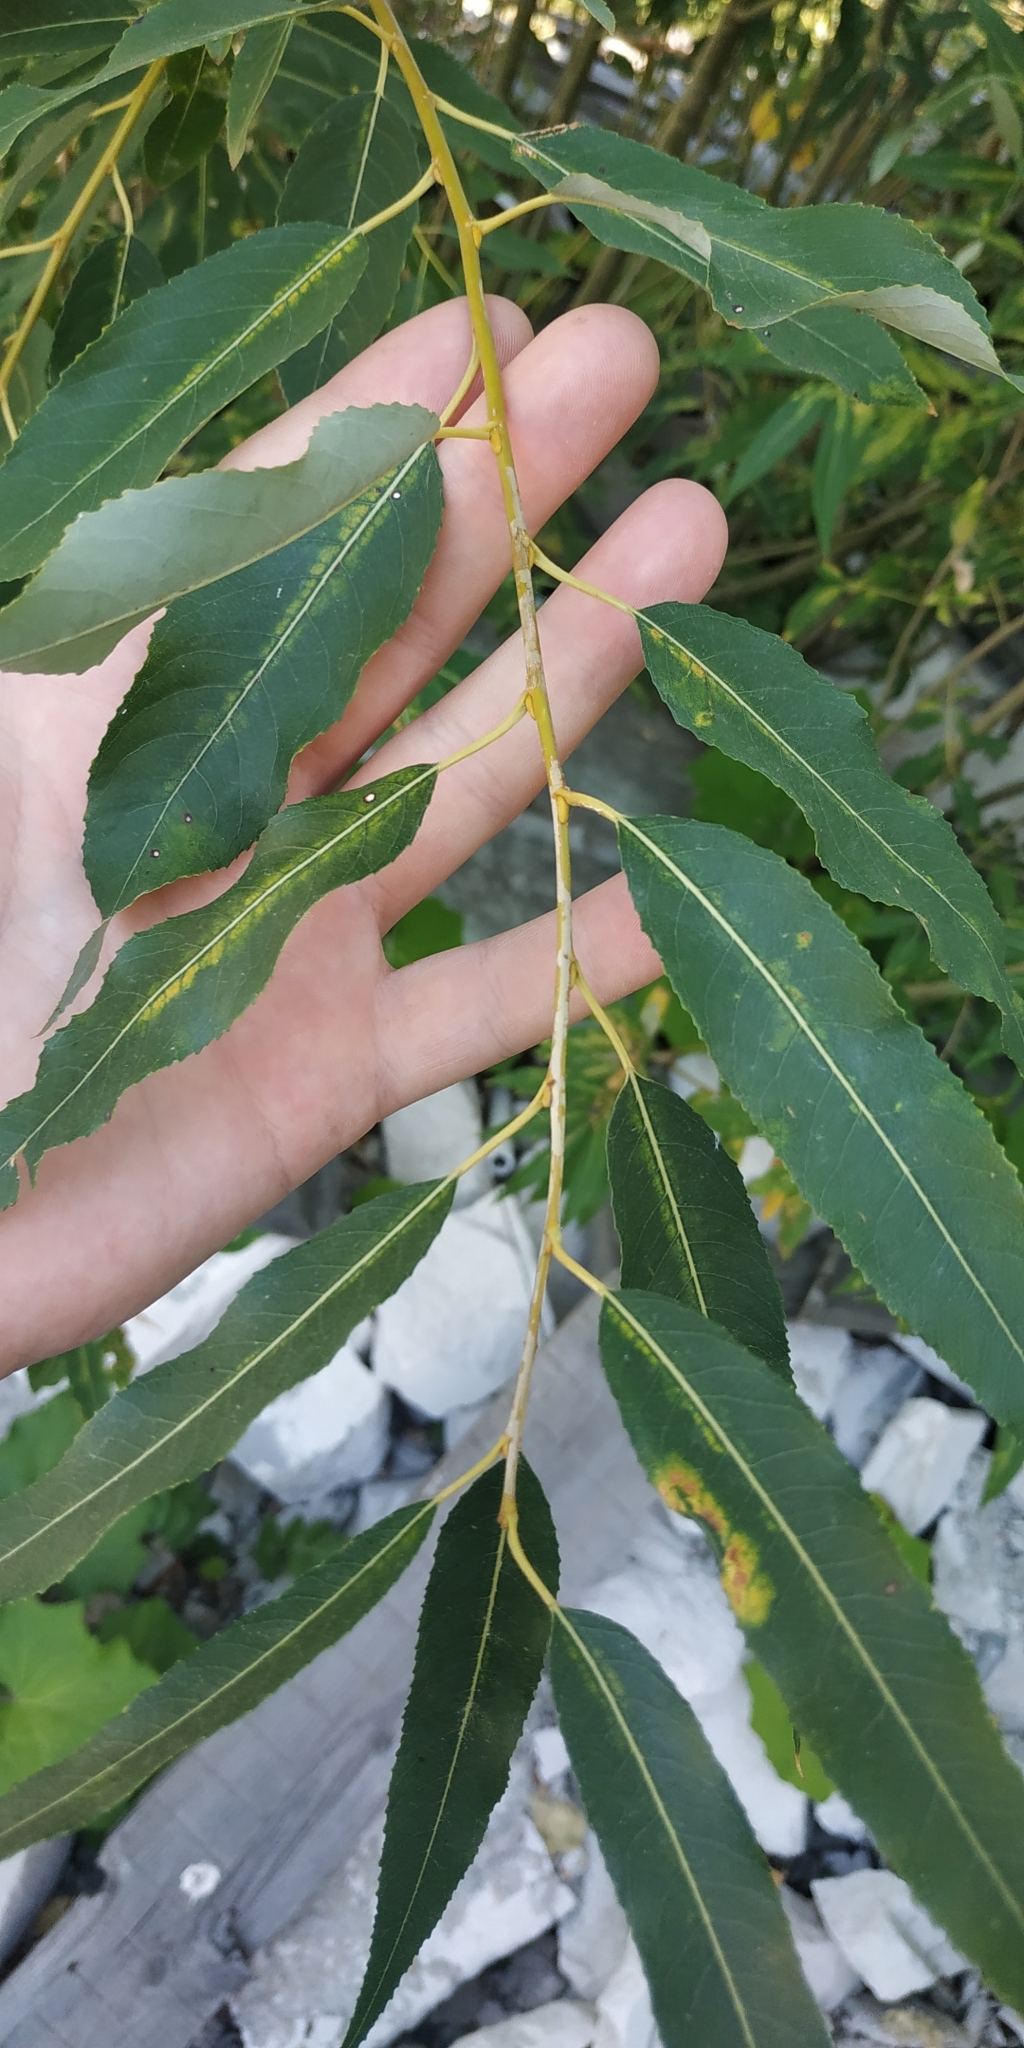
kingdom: Plantae
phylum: Tracheophyta
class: Magnoliopsida
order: Malpighiales
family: Salicaceae
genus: Salix
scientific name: Salix triandra
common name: Almond willow
